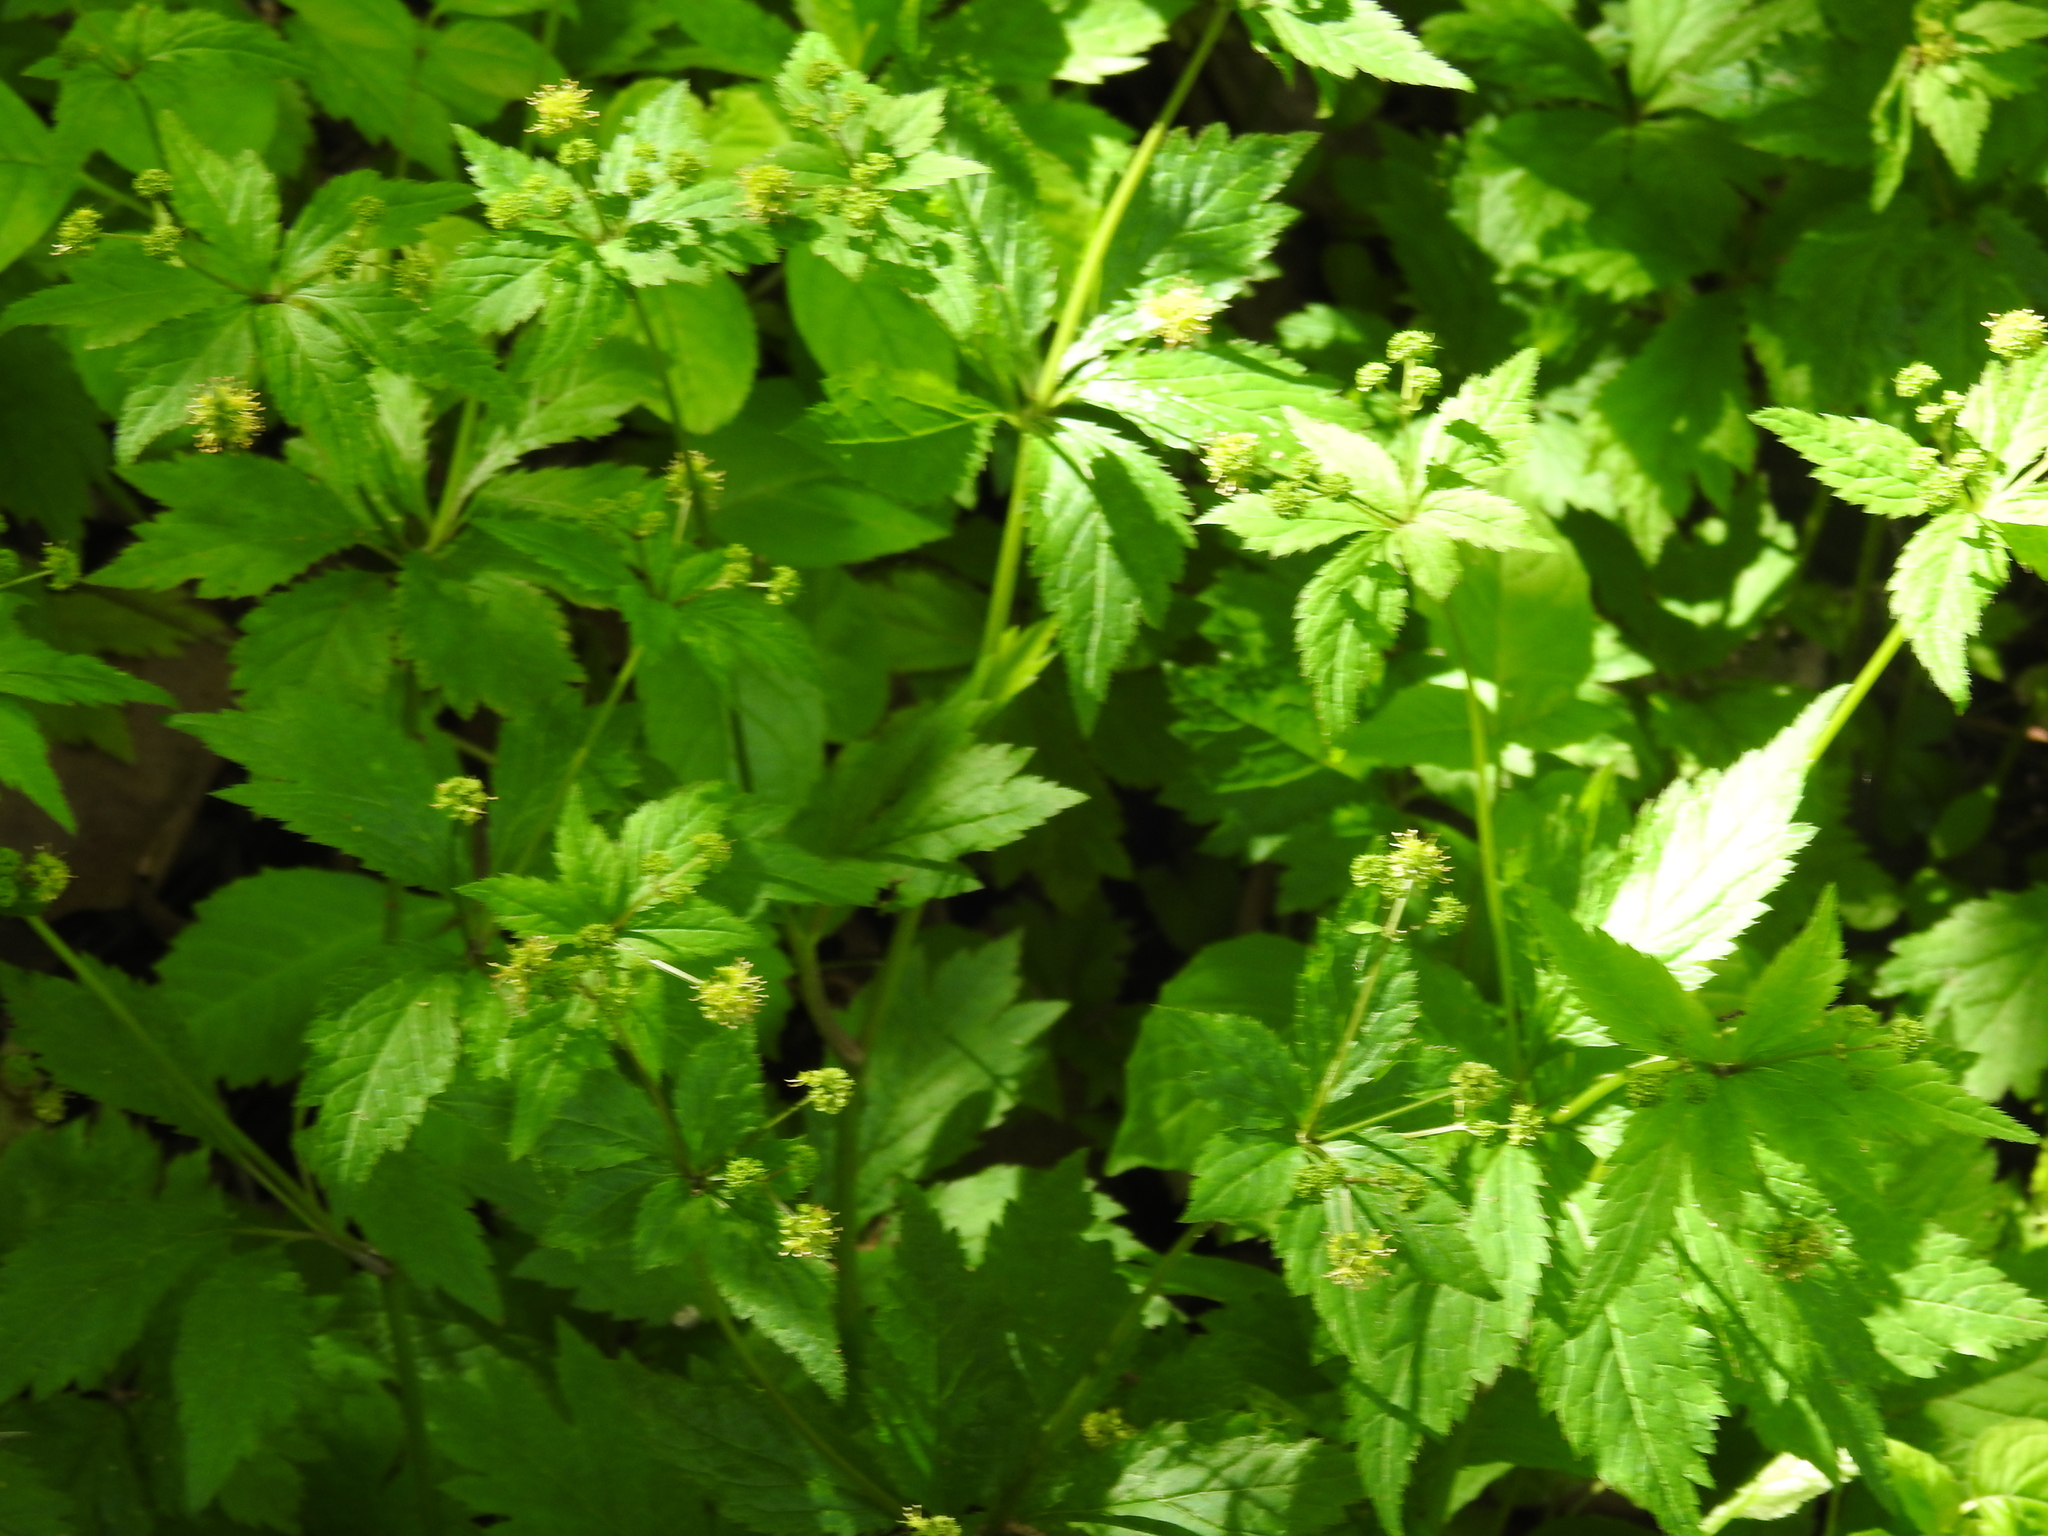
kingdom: Plantae
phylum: Tracheophyta
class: Magnoliopsida
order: Apiales
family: Apiaceae
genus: Sanicula
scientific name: Sanicula odorata
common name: Cluster sanicle
